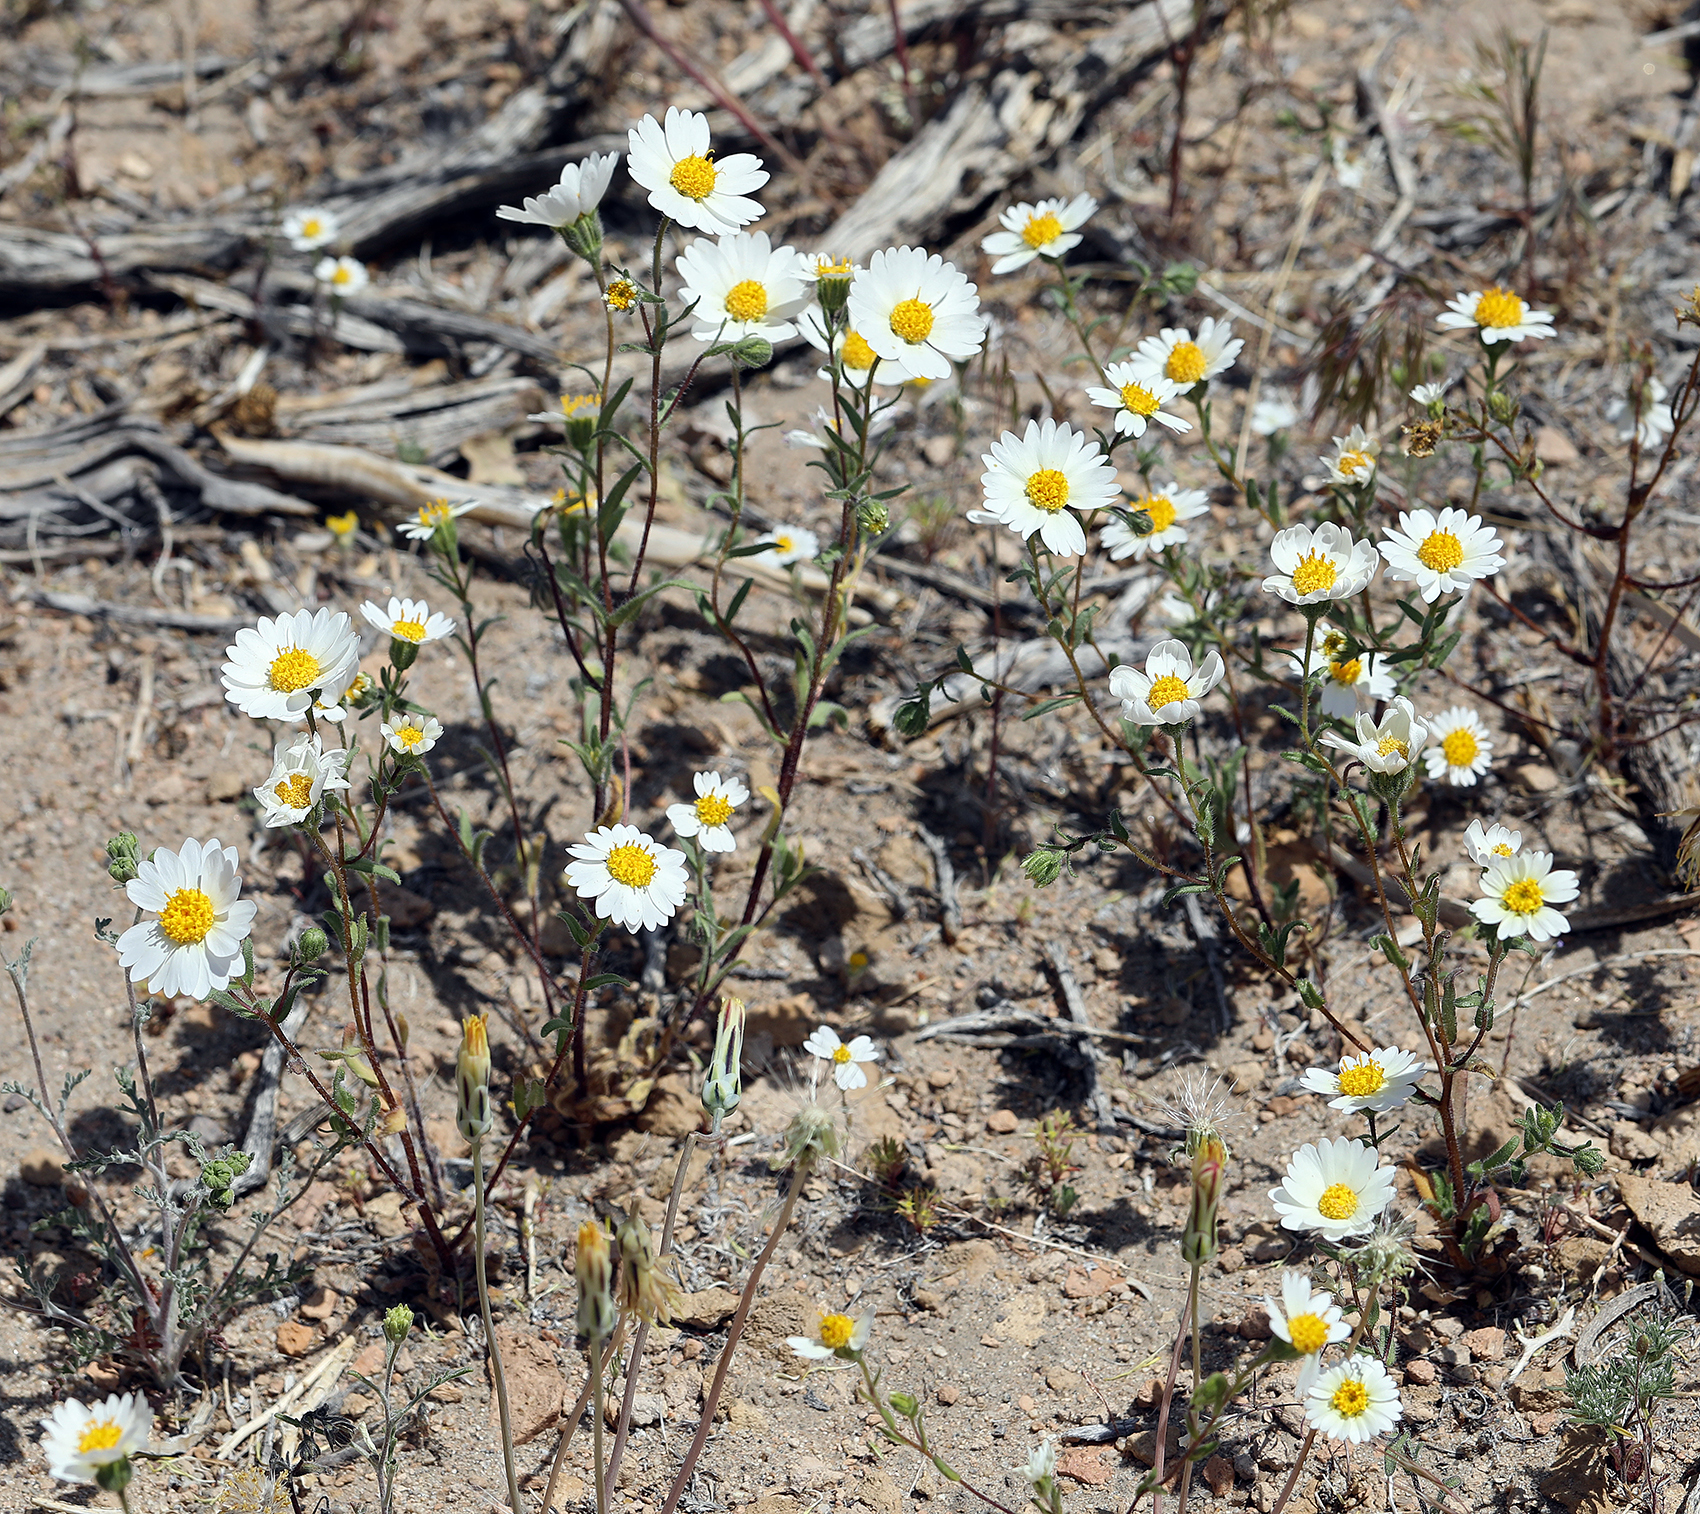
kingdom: Plantae
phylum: Tracheophyta
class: Magnoliopsida
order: Asterales
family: Asteraceae
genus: Layia
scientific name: Layia glandulosa
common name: White layia
